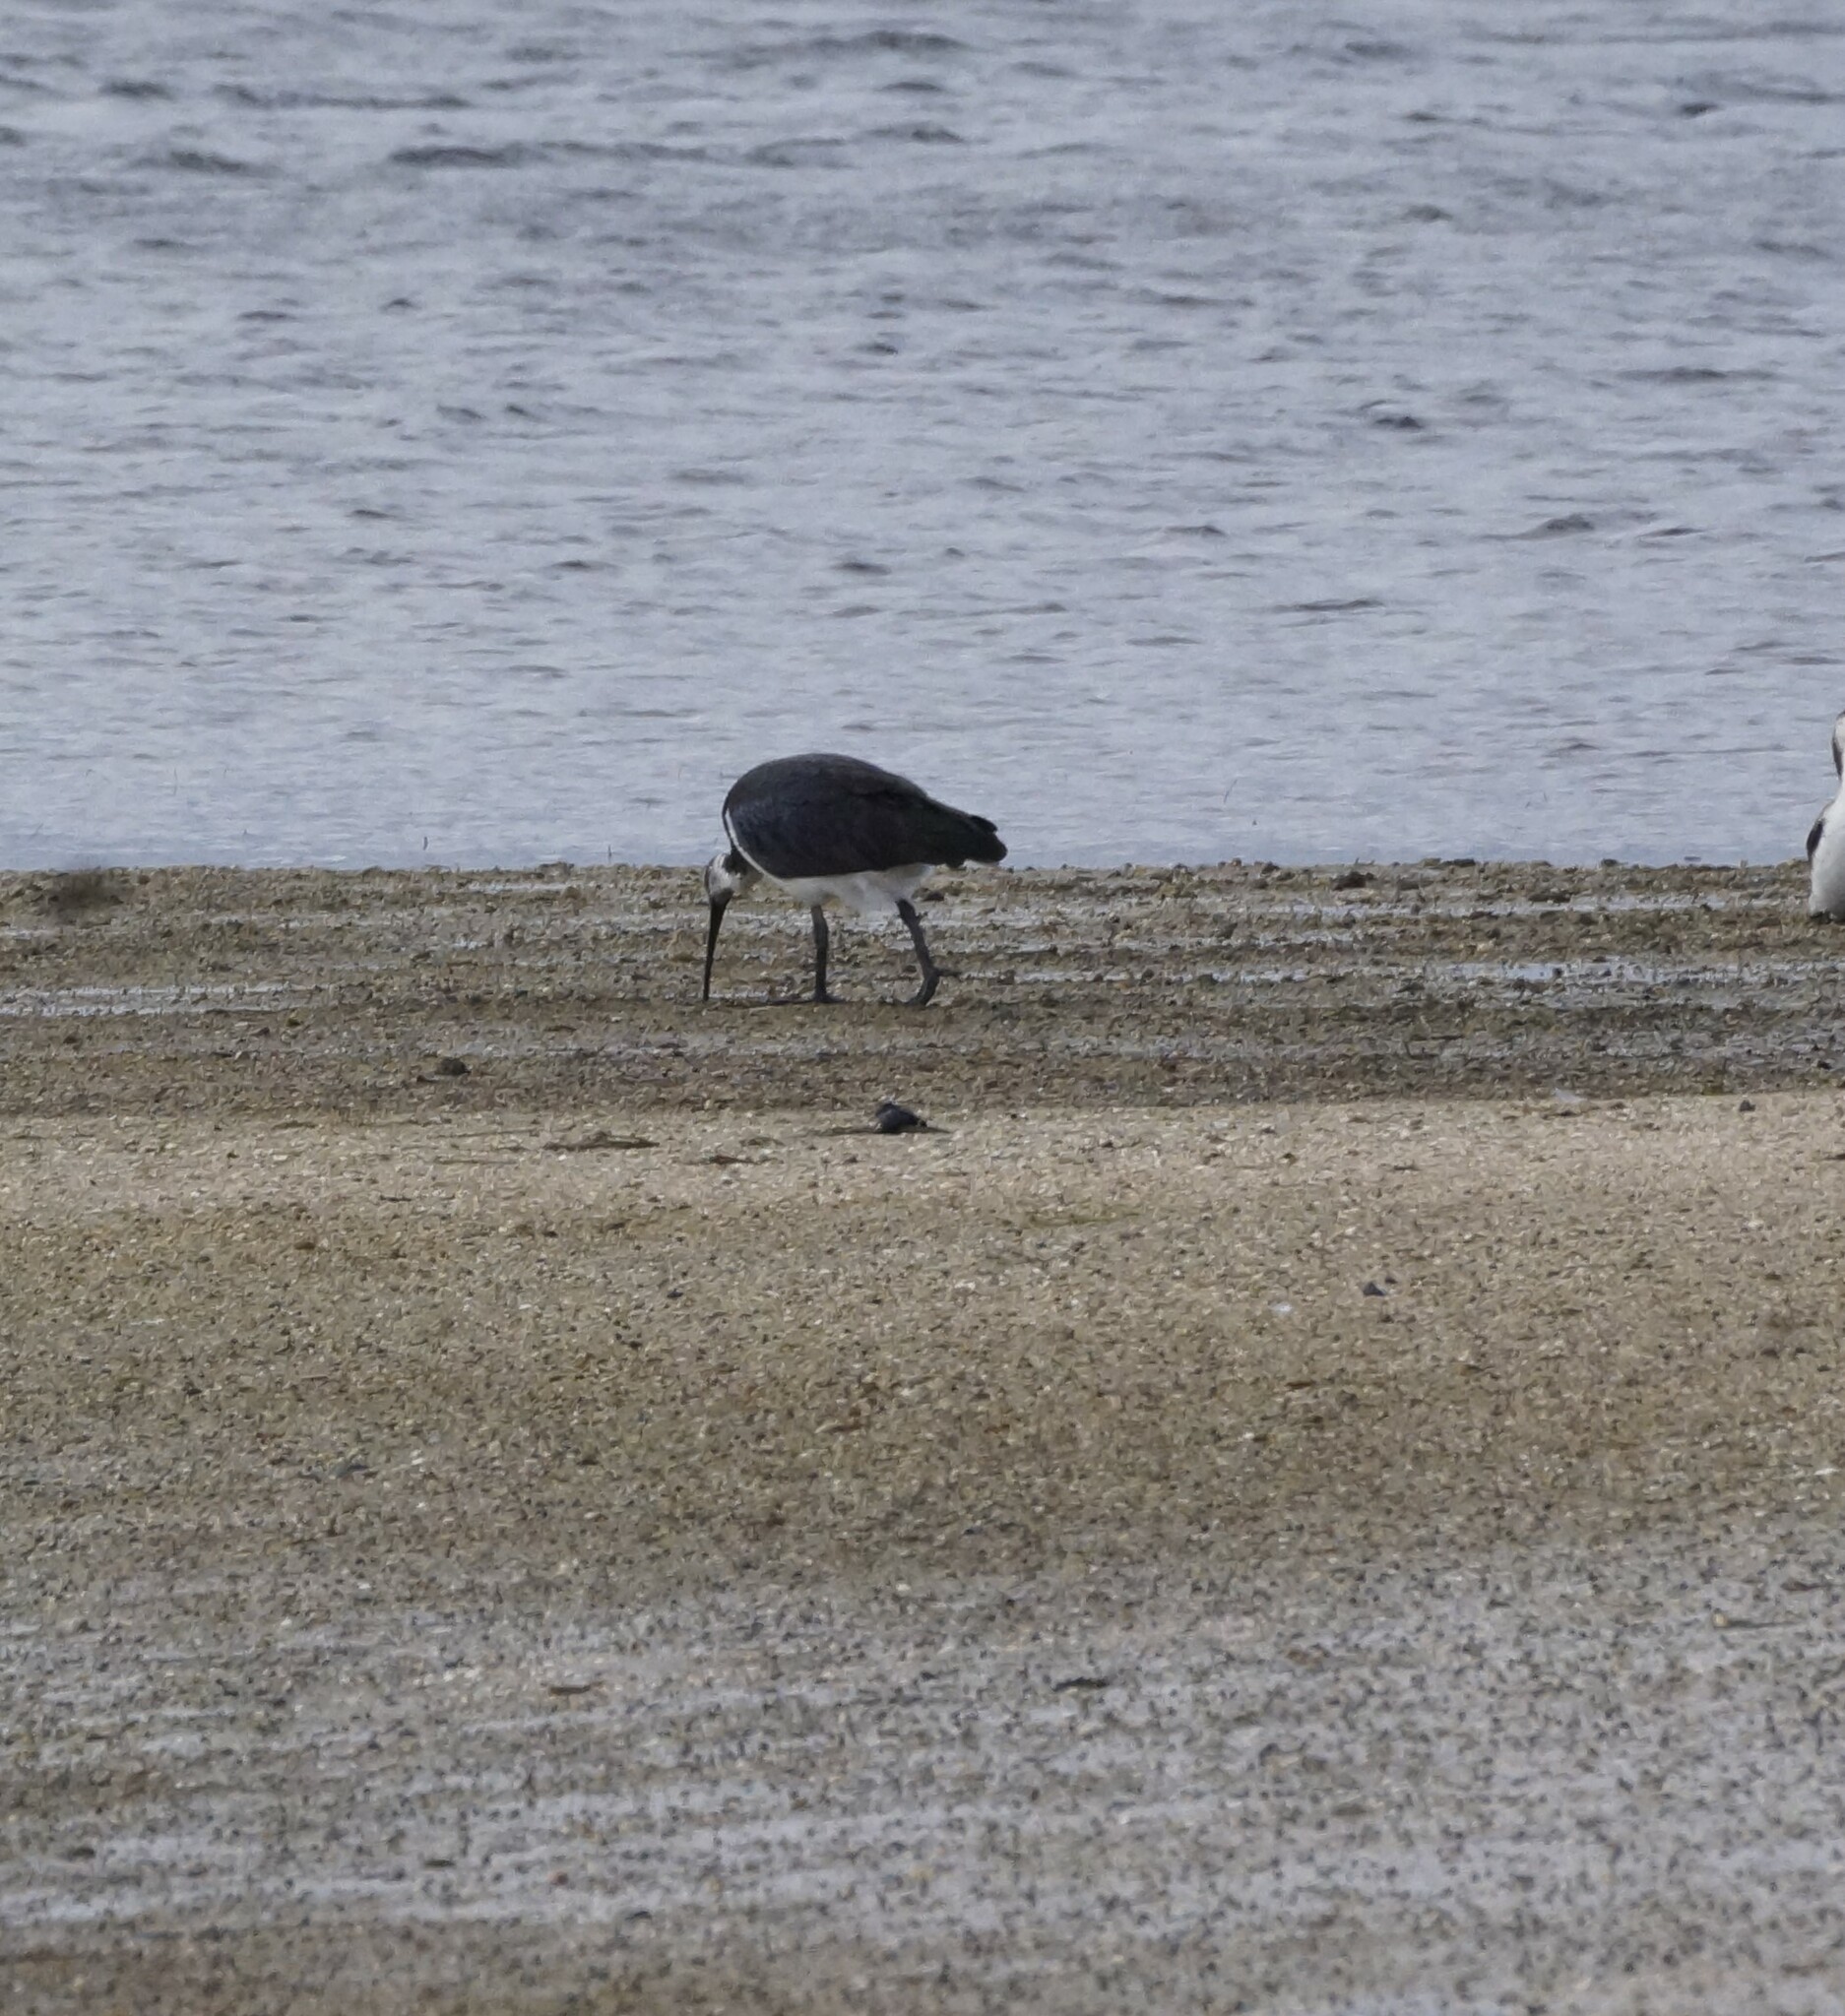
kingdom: Animalia
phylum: Chordata
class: Aves
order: Pelecaniformes
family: Threskiornithidae
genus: Threskiornis
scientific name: Threskiornis spinicollis
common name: Straw-necked ibis
